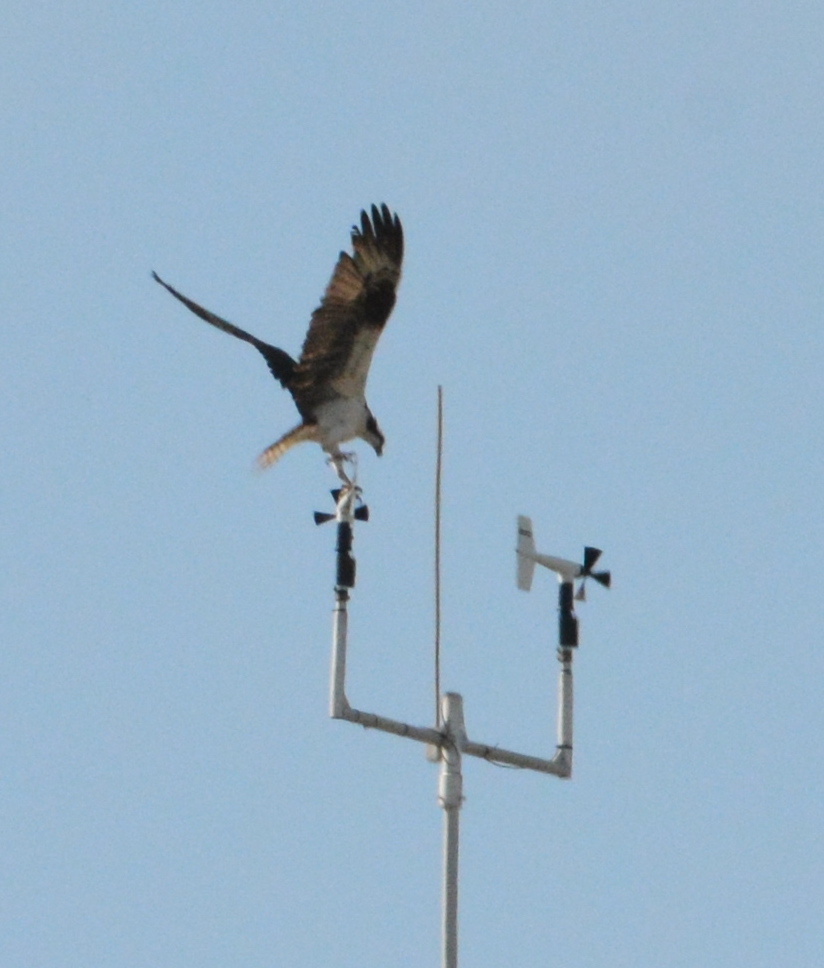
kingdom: Animalia
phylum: Chordata
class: Aves
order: Accipitriformes
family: Pandionidae
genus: Pandion
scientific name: Pandion haliaetus
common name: Osprey
